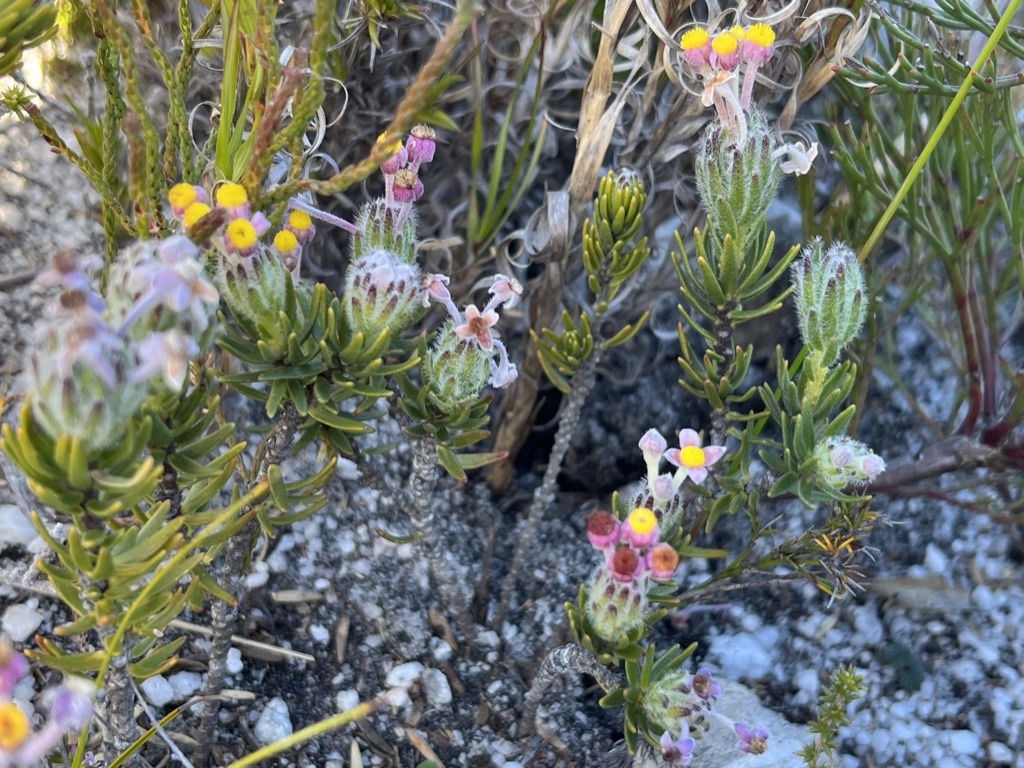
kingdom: Plantae
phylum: Tracheophyta
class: Magnoliopsida
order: Malvales
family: Thymelaeaceae
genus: Gnidia
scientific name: Gnidia nana
